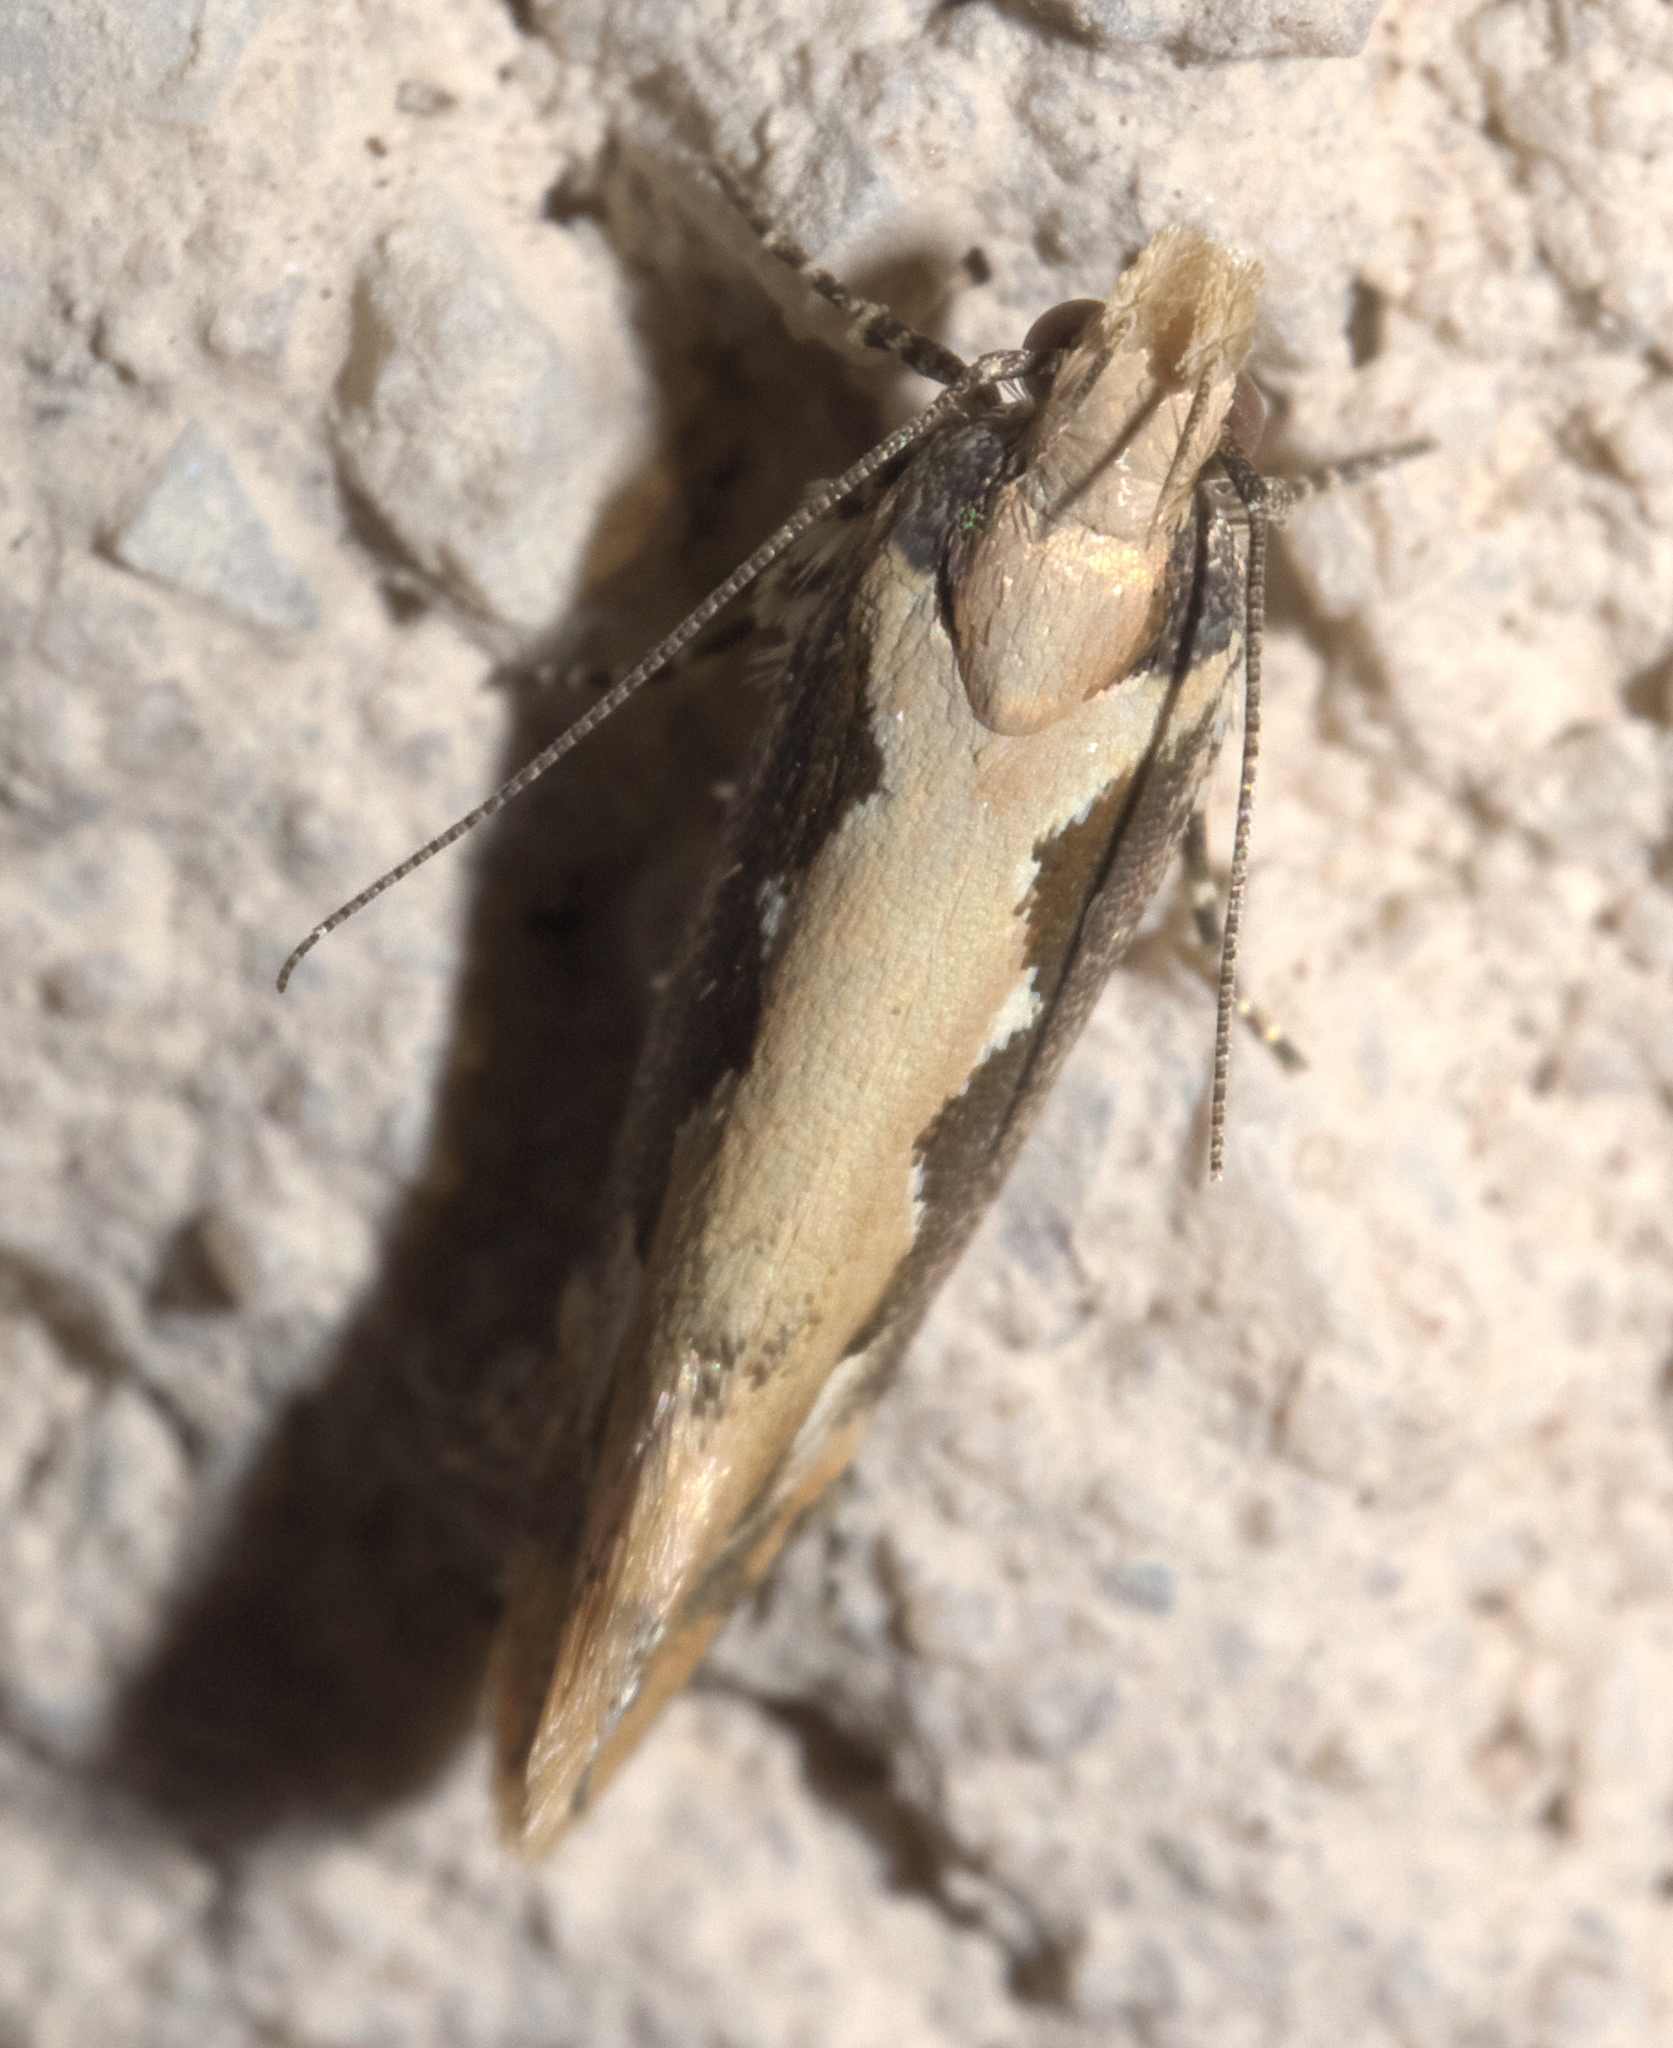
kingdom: Animalia
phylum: Arthropoda
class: Insecta
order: Lepidoptera
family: Gelechiidae
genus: Ornativalva
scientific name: Ornativalva erubescens
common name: Moth
